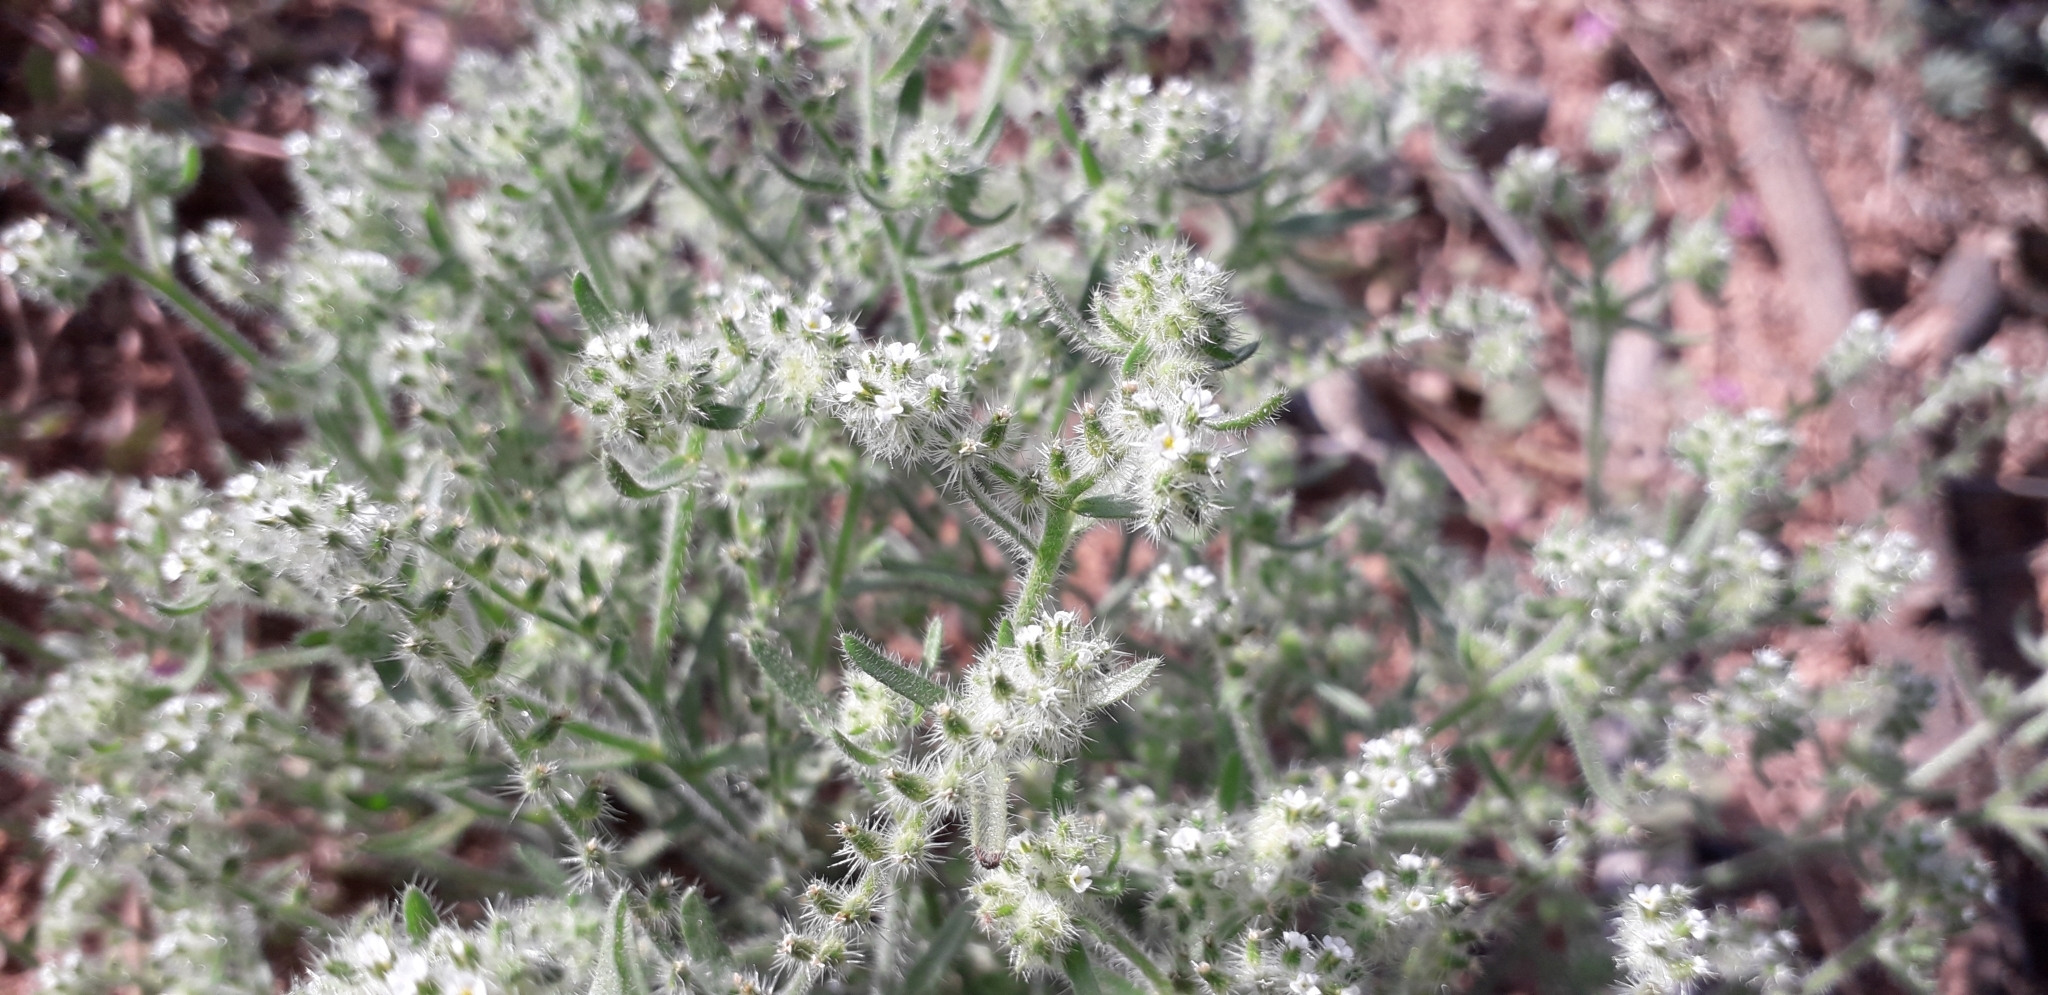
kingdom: Plantae
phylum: Tracheophyta
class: Magnoliopsida
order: Boraginales
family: Boraginaceae
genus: Johnstonella
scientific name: Johnstonella angustifolia
